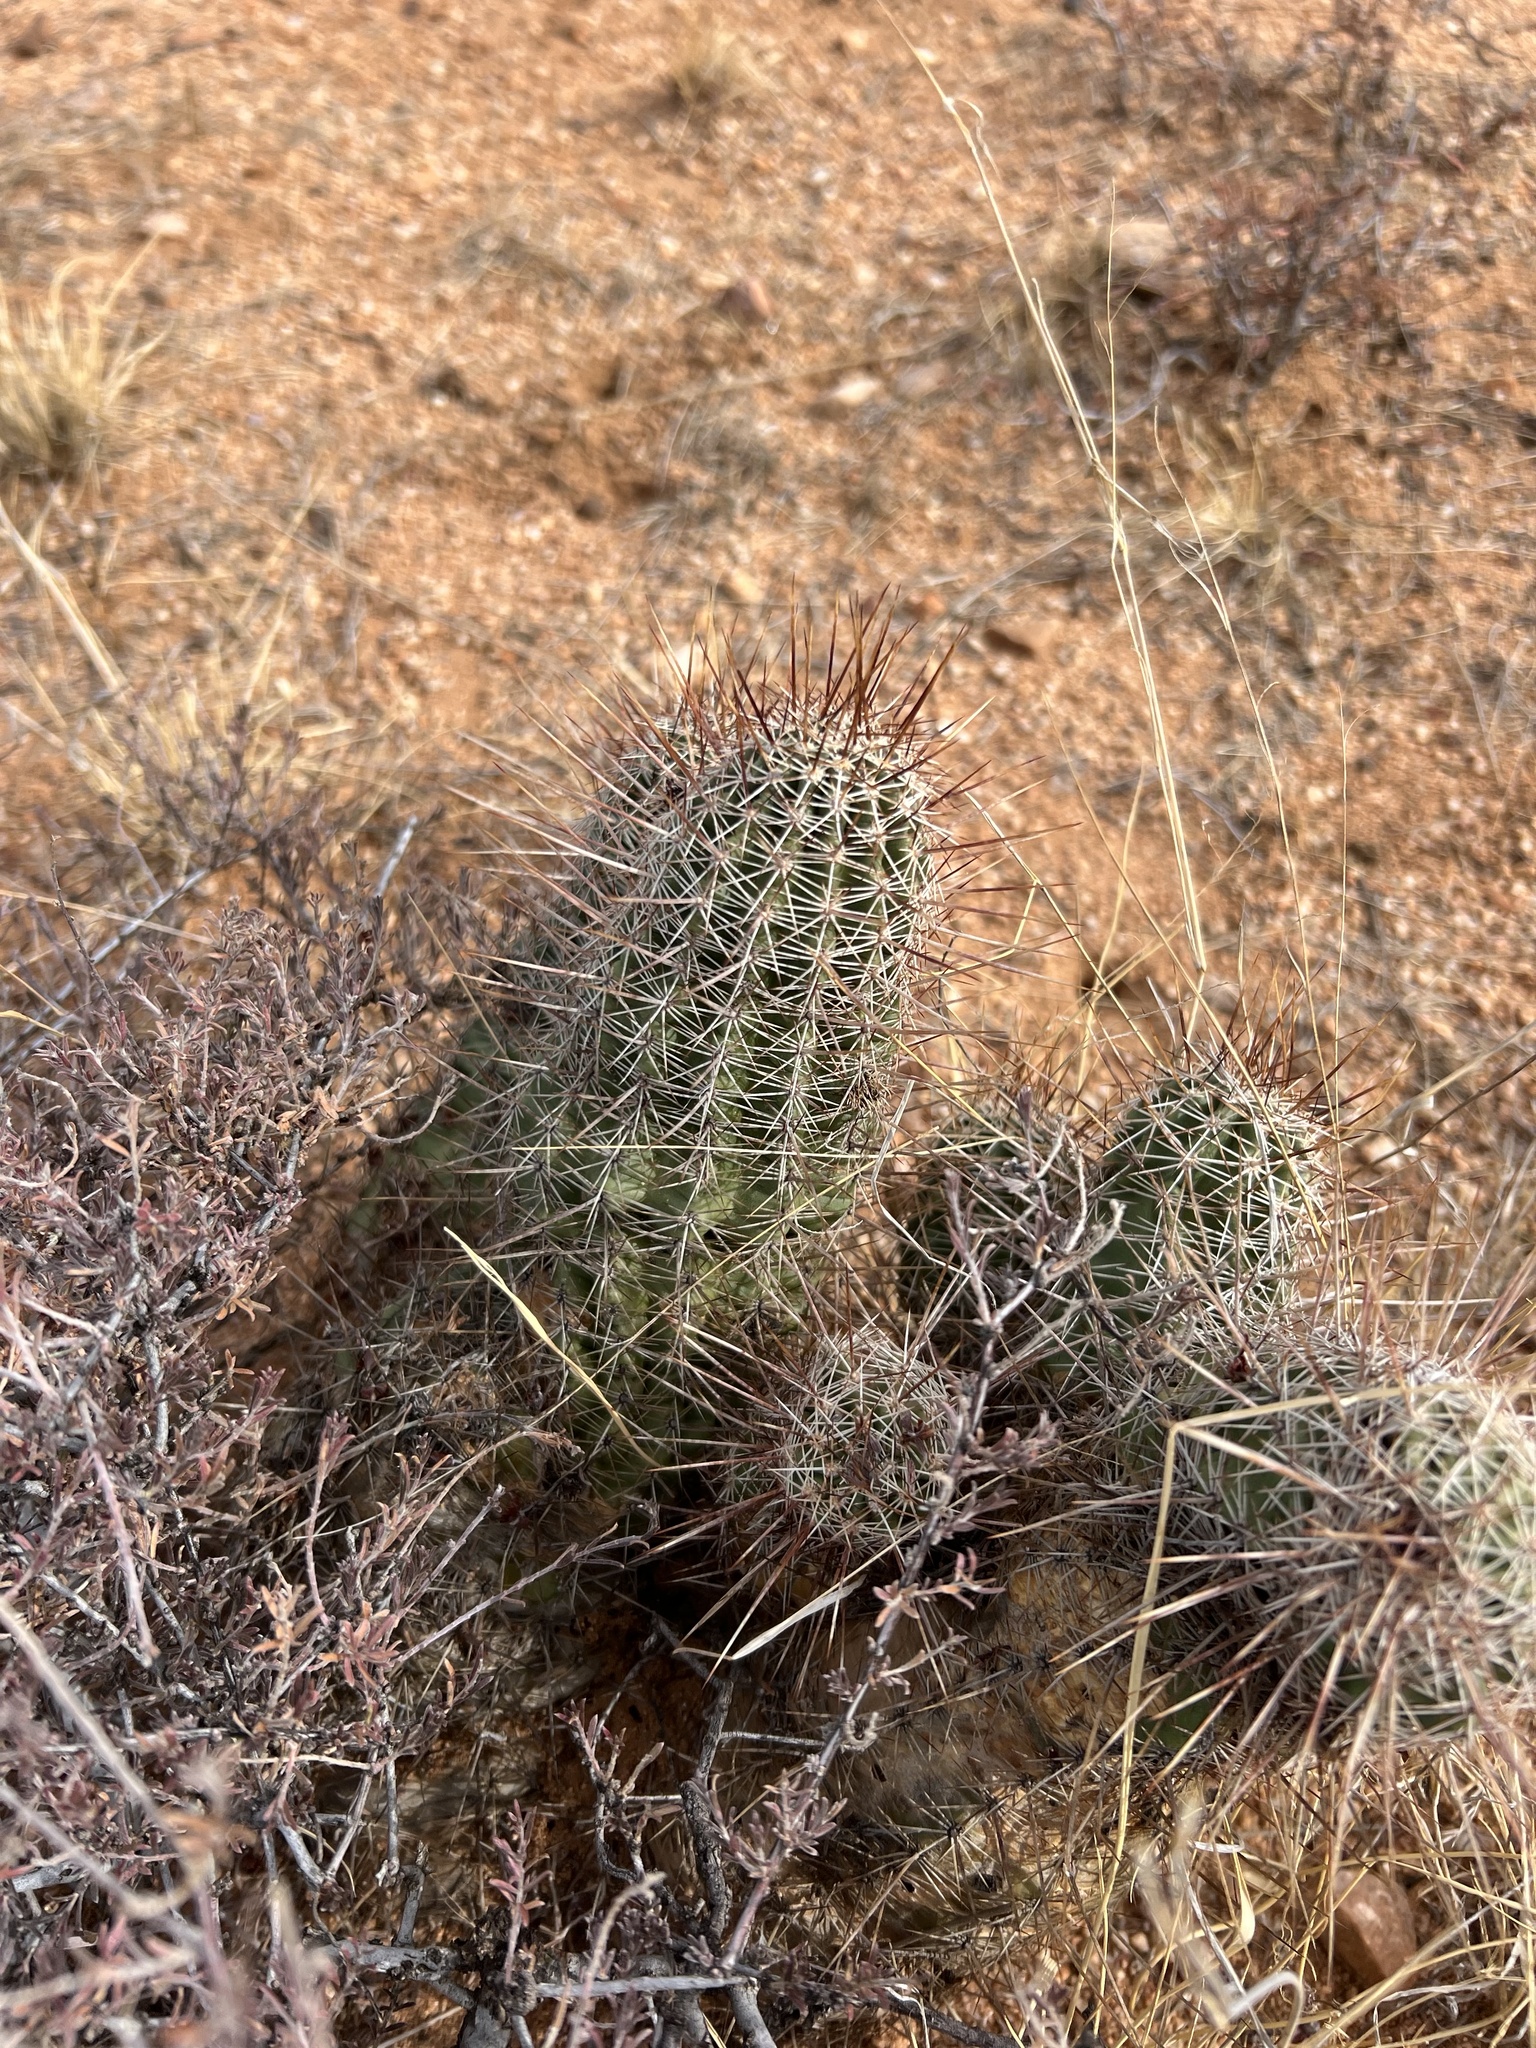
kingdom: Plantae
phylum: Tracheophyta
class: Magnoliopsida
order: Caryophyllales
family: Cactaceae
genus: Echinocereus
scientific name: Echinocereus fasciculatus
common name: Bundle hedgehog
